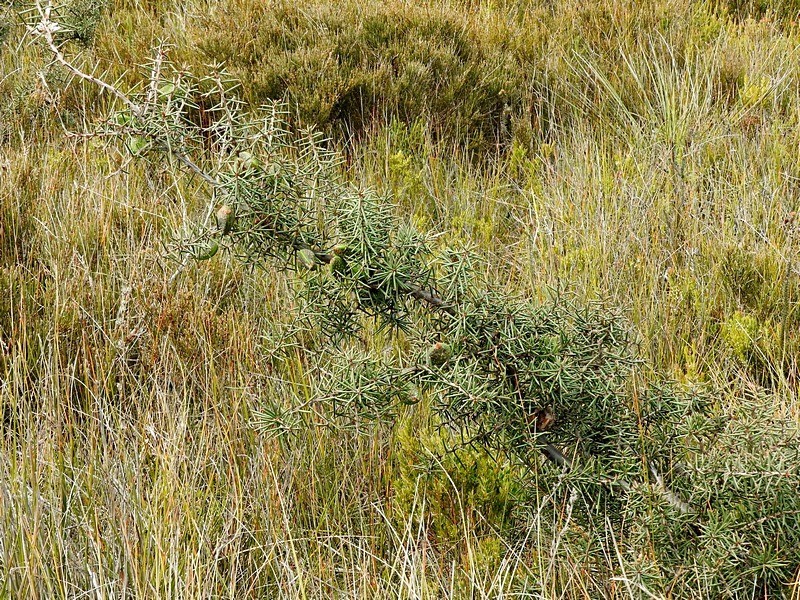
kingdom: Plantae
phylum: Tracheophyta
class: Magnoliopsida
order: Proteales
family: Proteaceae
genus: Hakea
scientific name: Hakea decurrens
